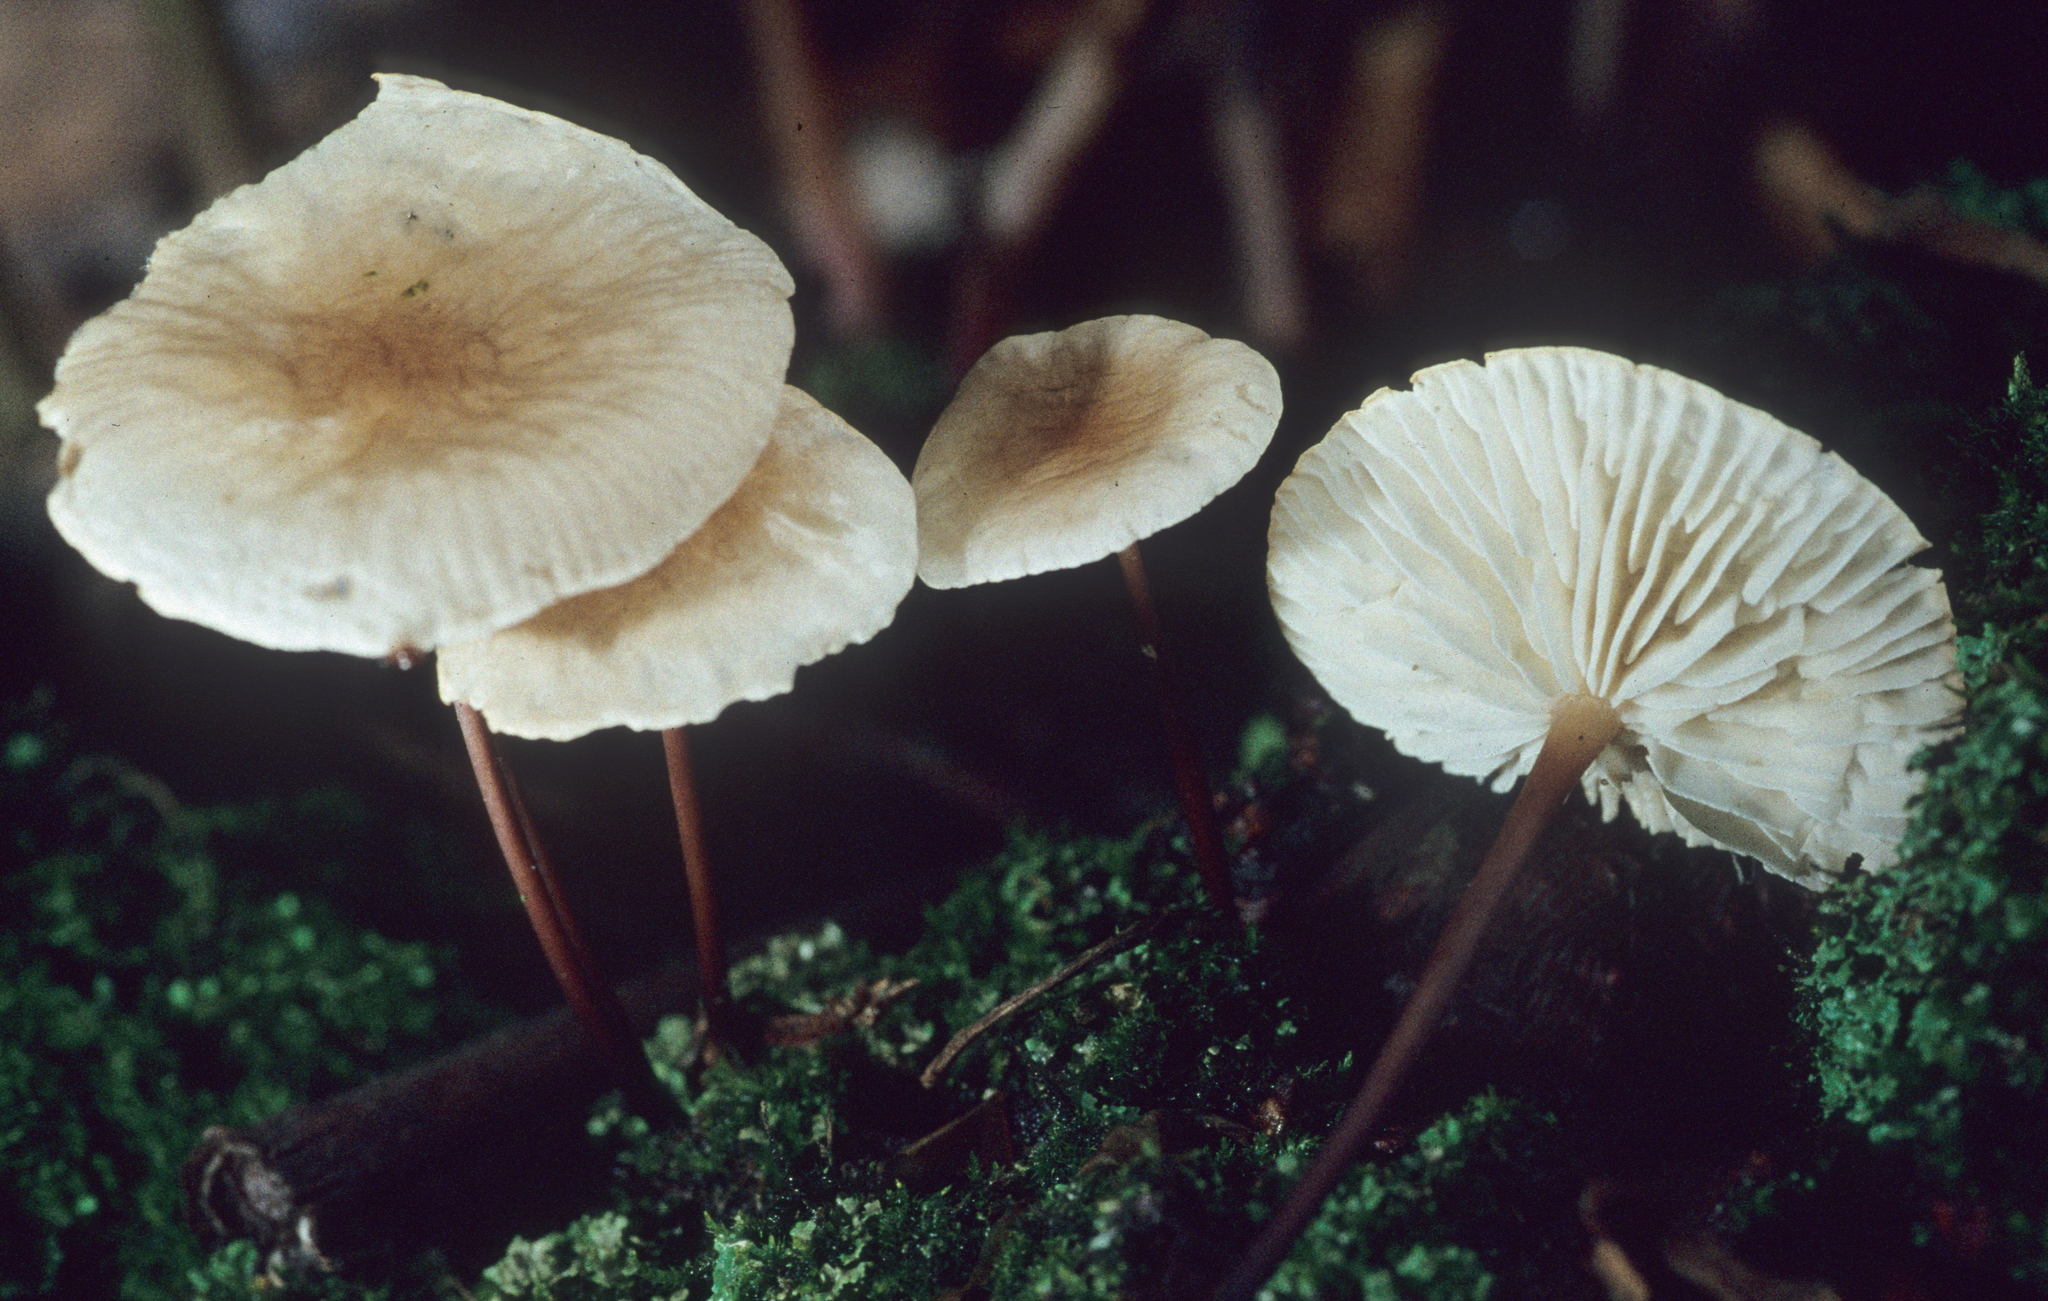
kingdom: Fungi
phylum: Basidiomycota
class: Agaricomycetes
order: Agaricales
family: Marasmiaceae
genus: Marasmius
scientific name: Marasmius delectans
